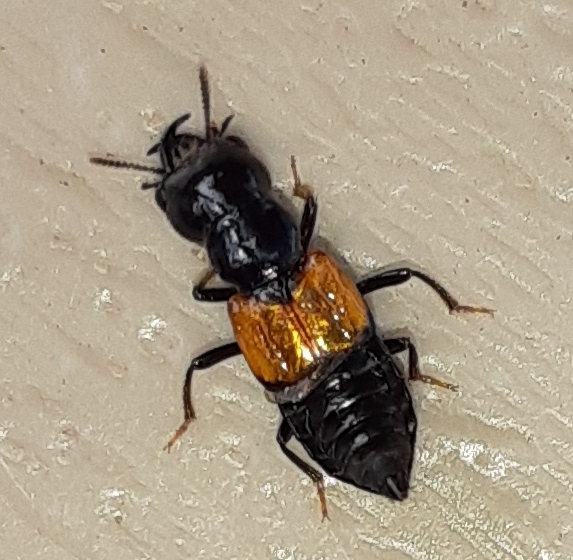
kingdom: Animalia
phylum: Arthropoda
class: Insecta
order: Coleoptera
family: Staphylinidae
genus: Oxyporus
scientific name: Oxyporus rufipennis
